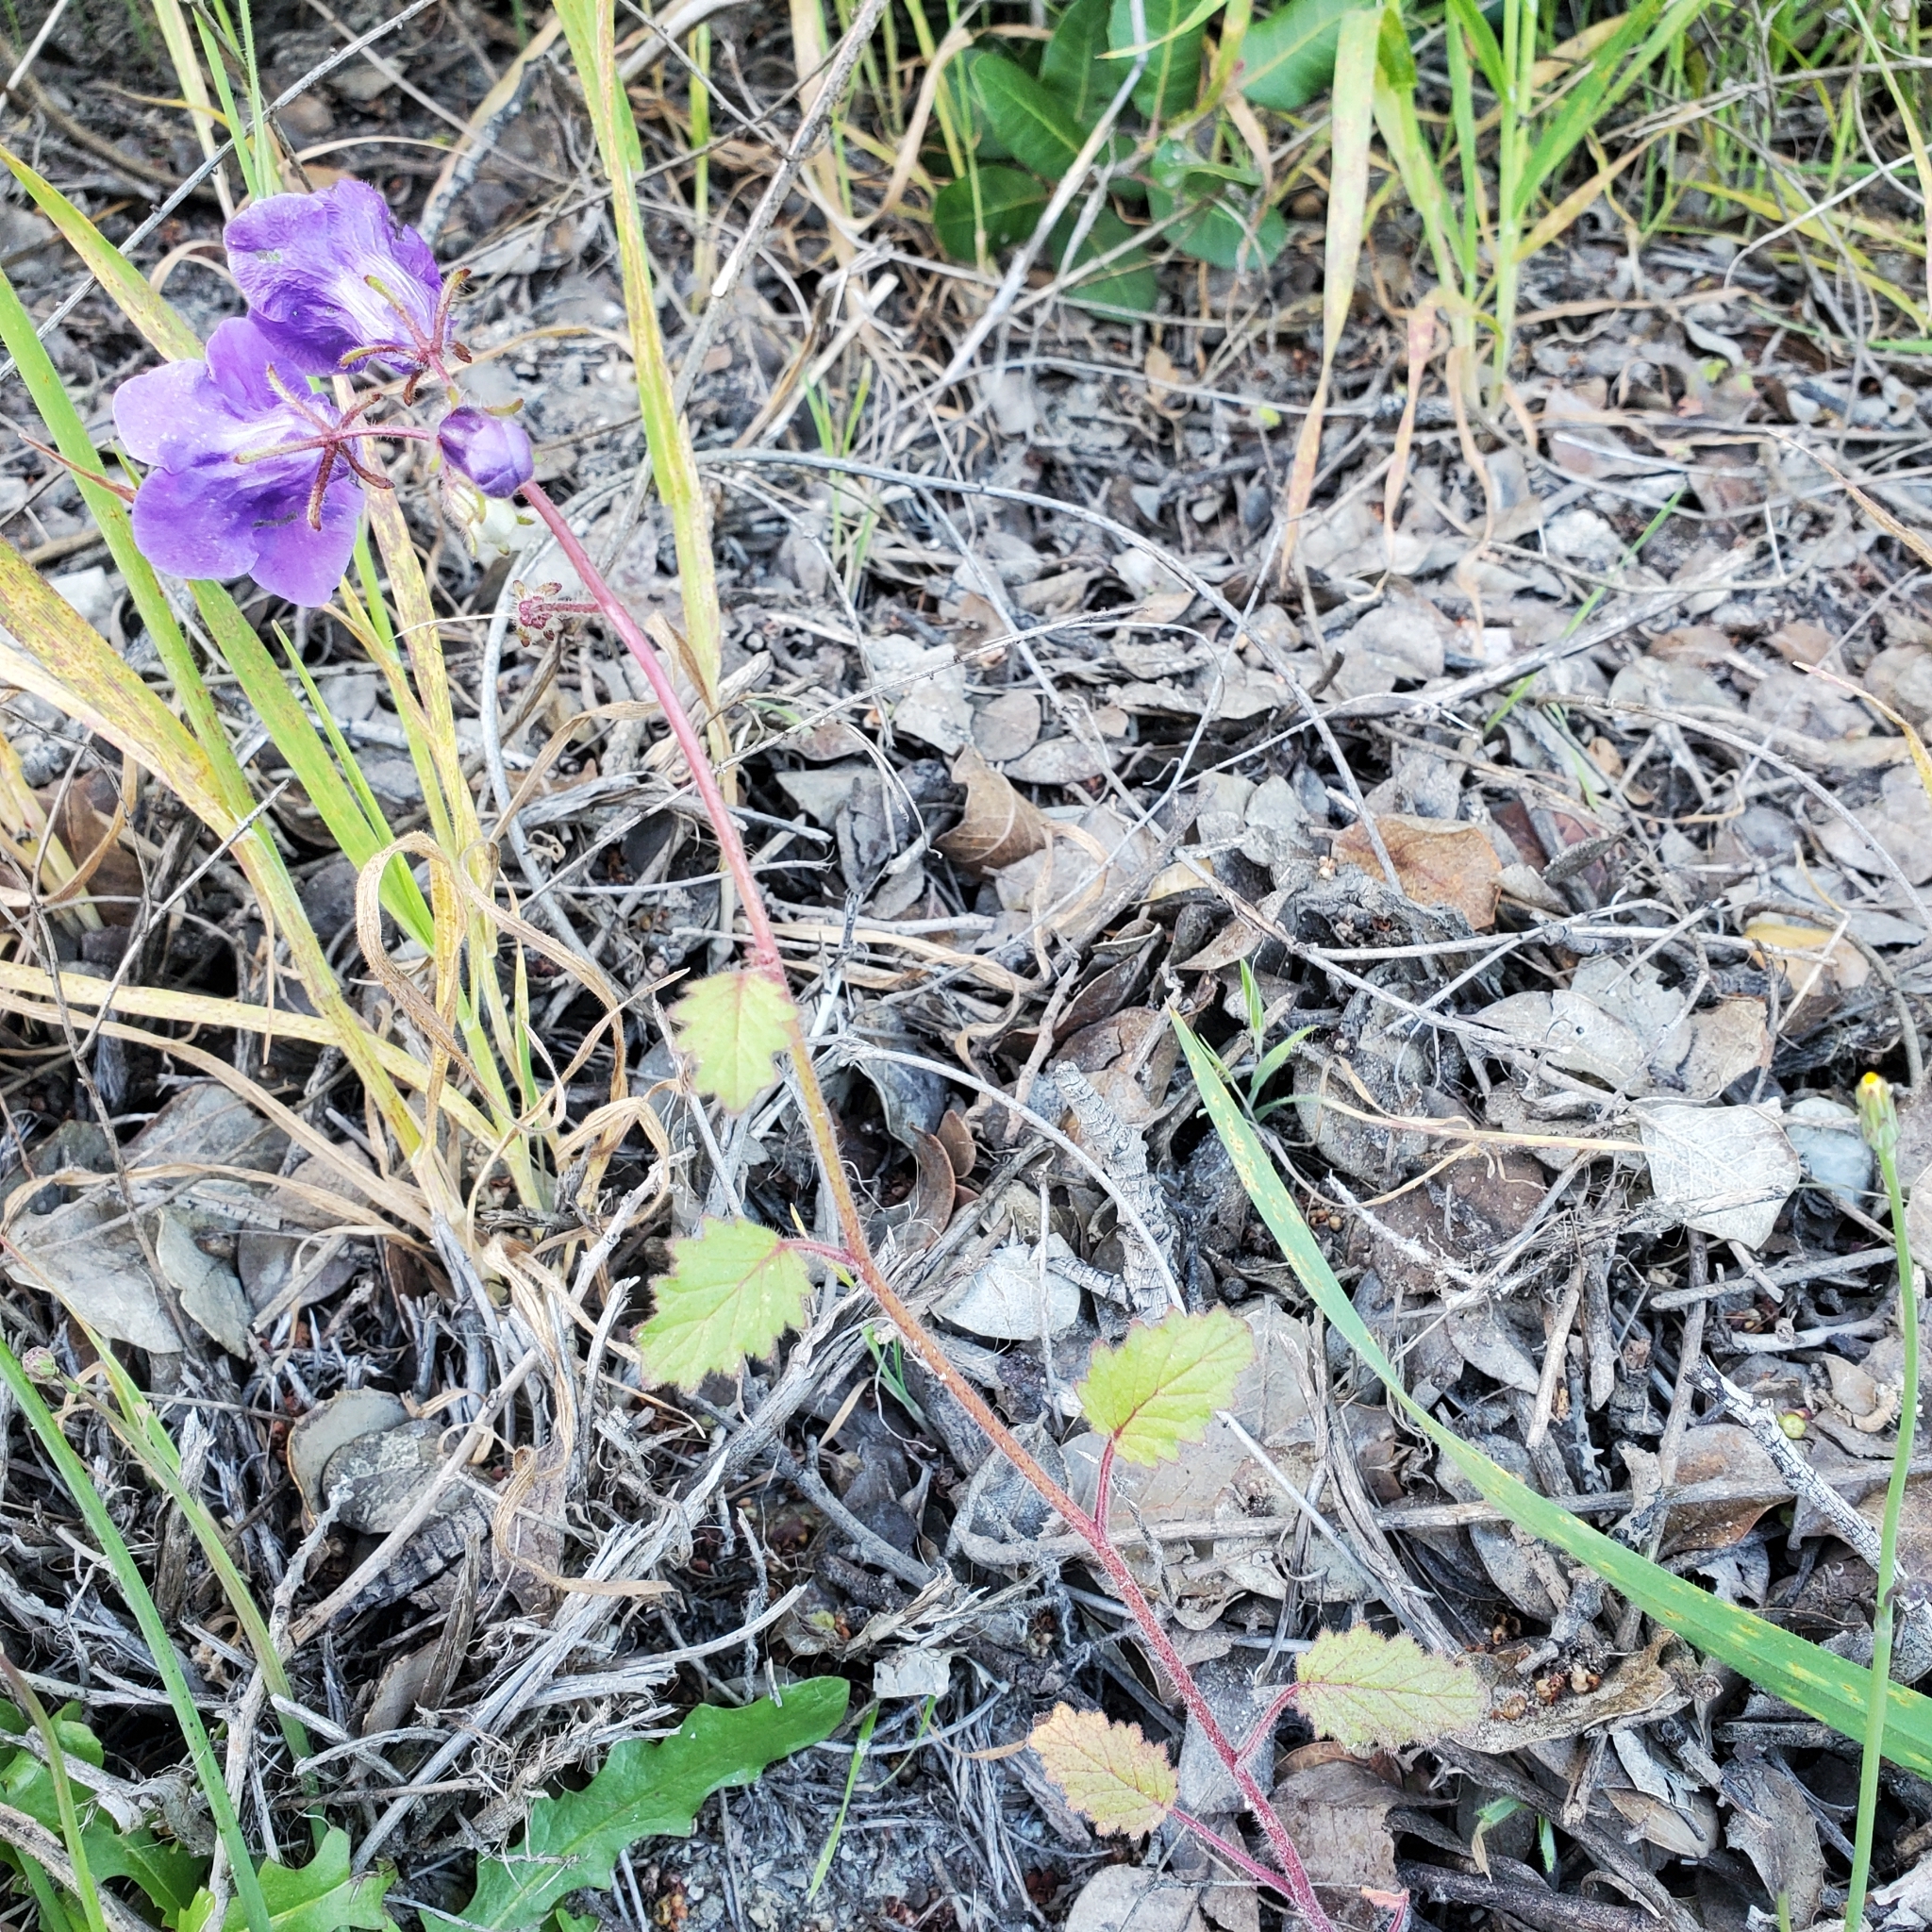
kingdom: Plantae
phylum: Tracheophyta
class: Magnoliopsida
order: Boraginales
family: Hydrophyllaceae
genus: Phacelia
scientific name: Phacelia minor
